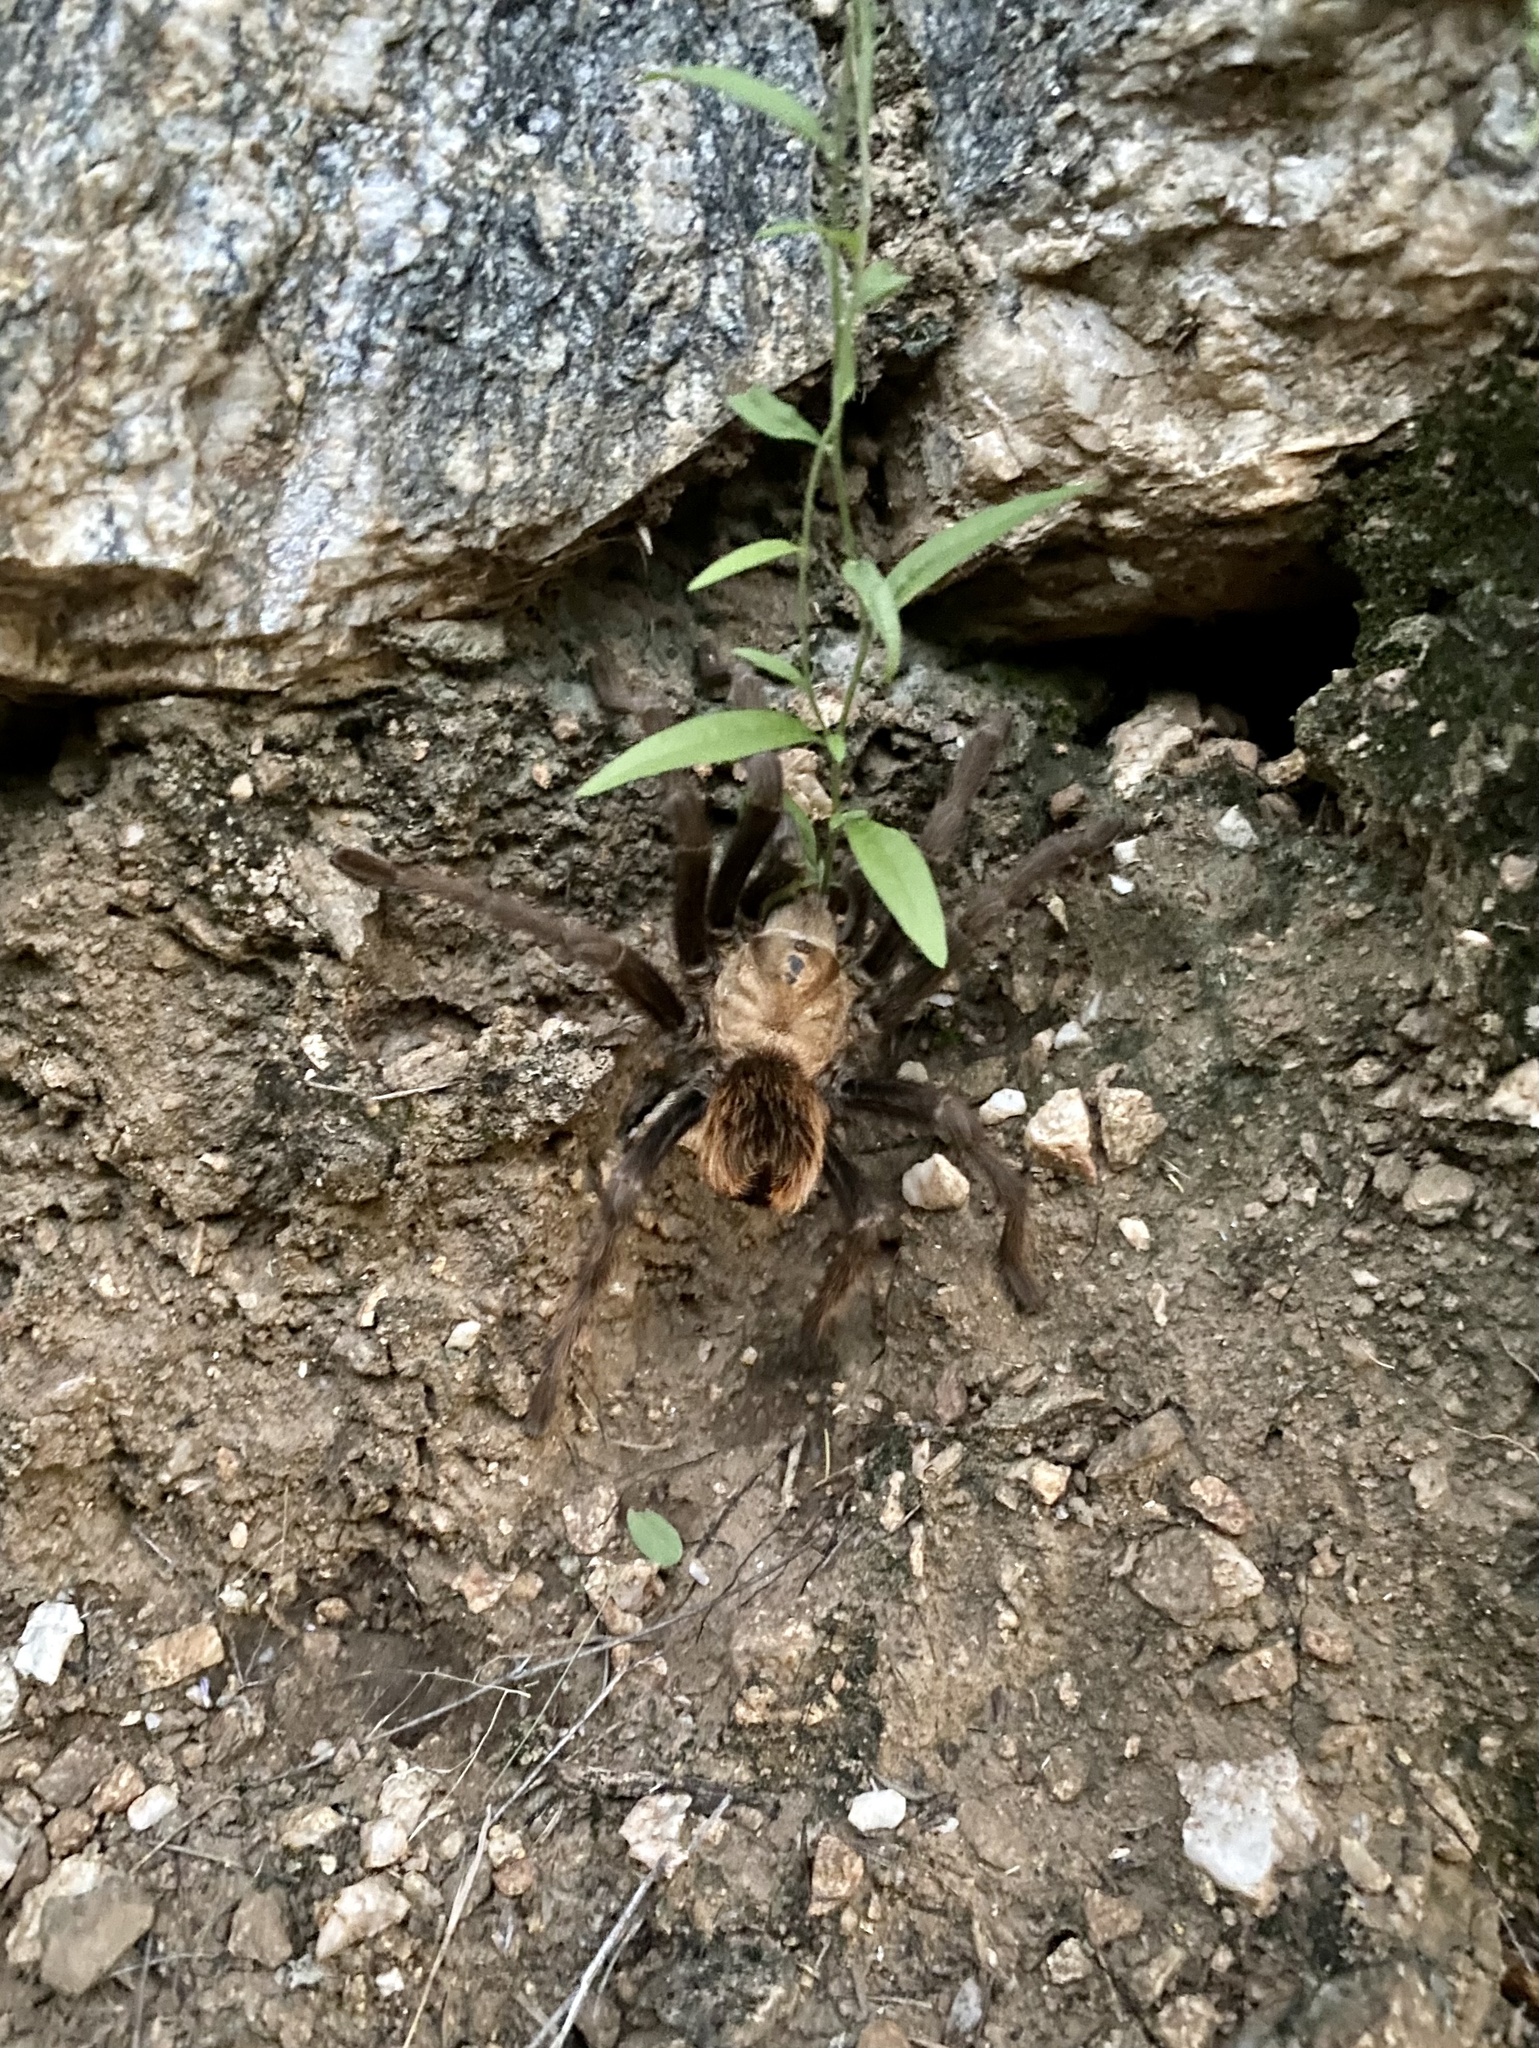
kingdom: Animalia
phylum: Arthropoda
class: Arachnida
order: Araneae
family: Theraphosidae
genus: Aphonopelma
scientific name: Aphonopelma chalcodes
